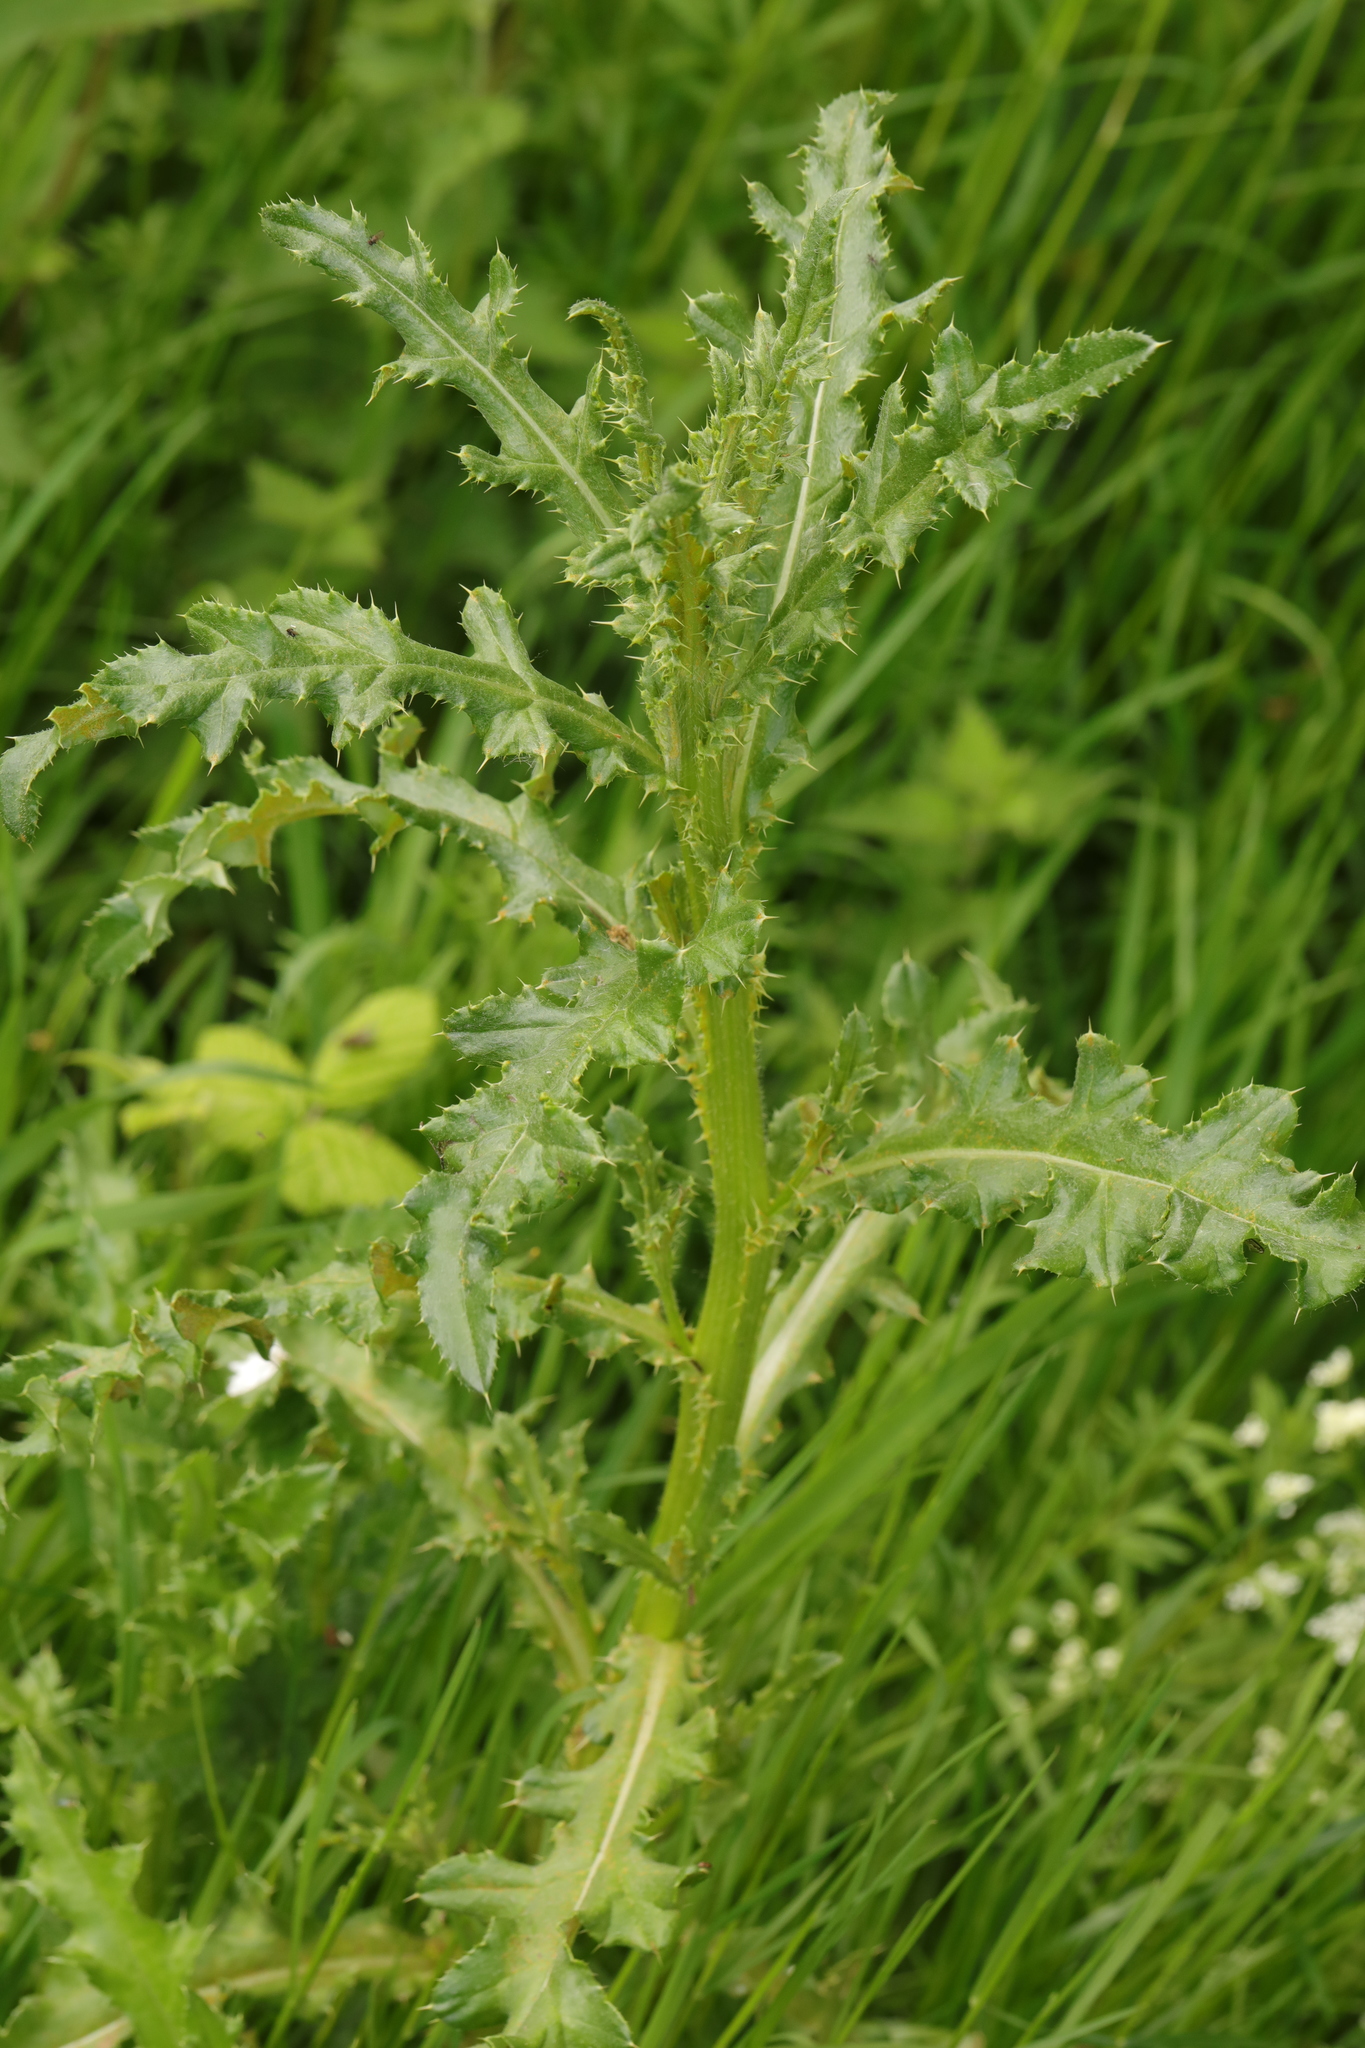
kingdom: Plantae
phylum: Tracheophyta
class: Magnoliopsida
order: Asterales
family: Asteraceae
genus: Cirsium
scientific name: Cirsium arvense
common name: Creeping thistle
